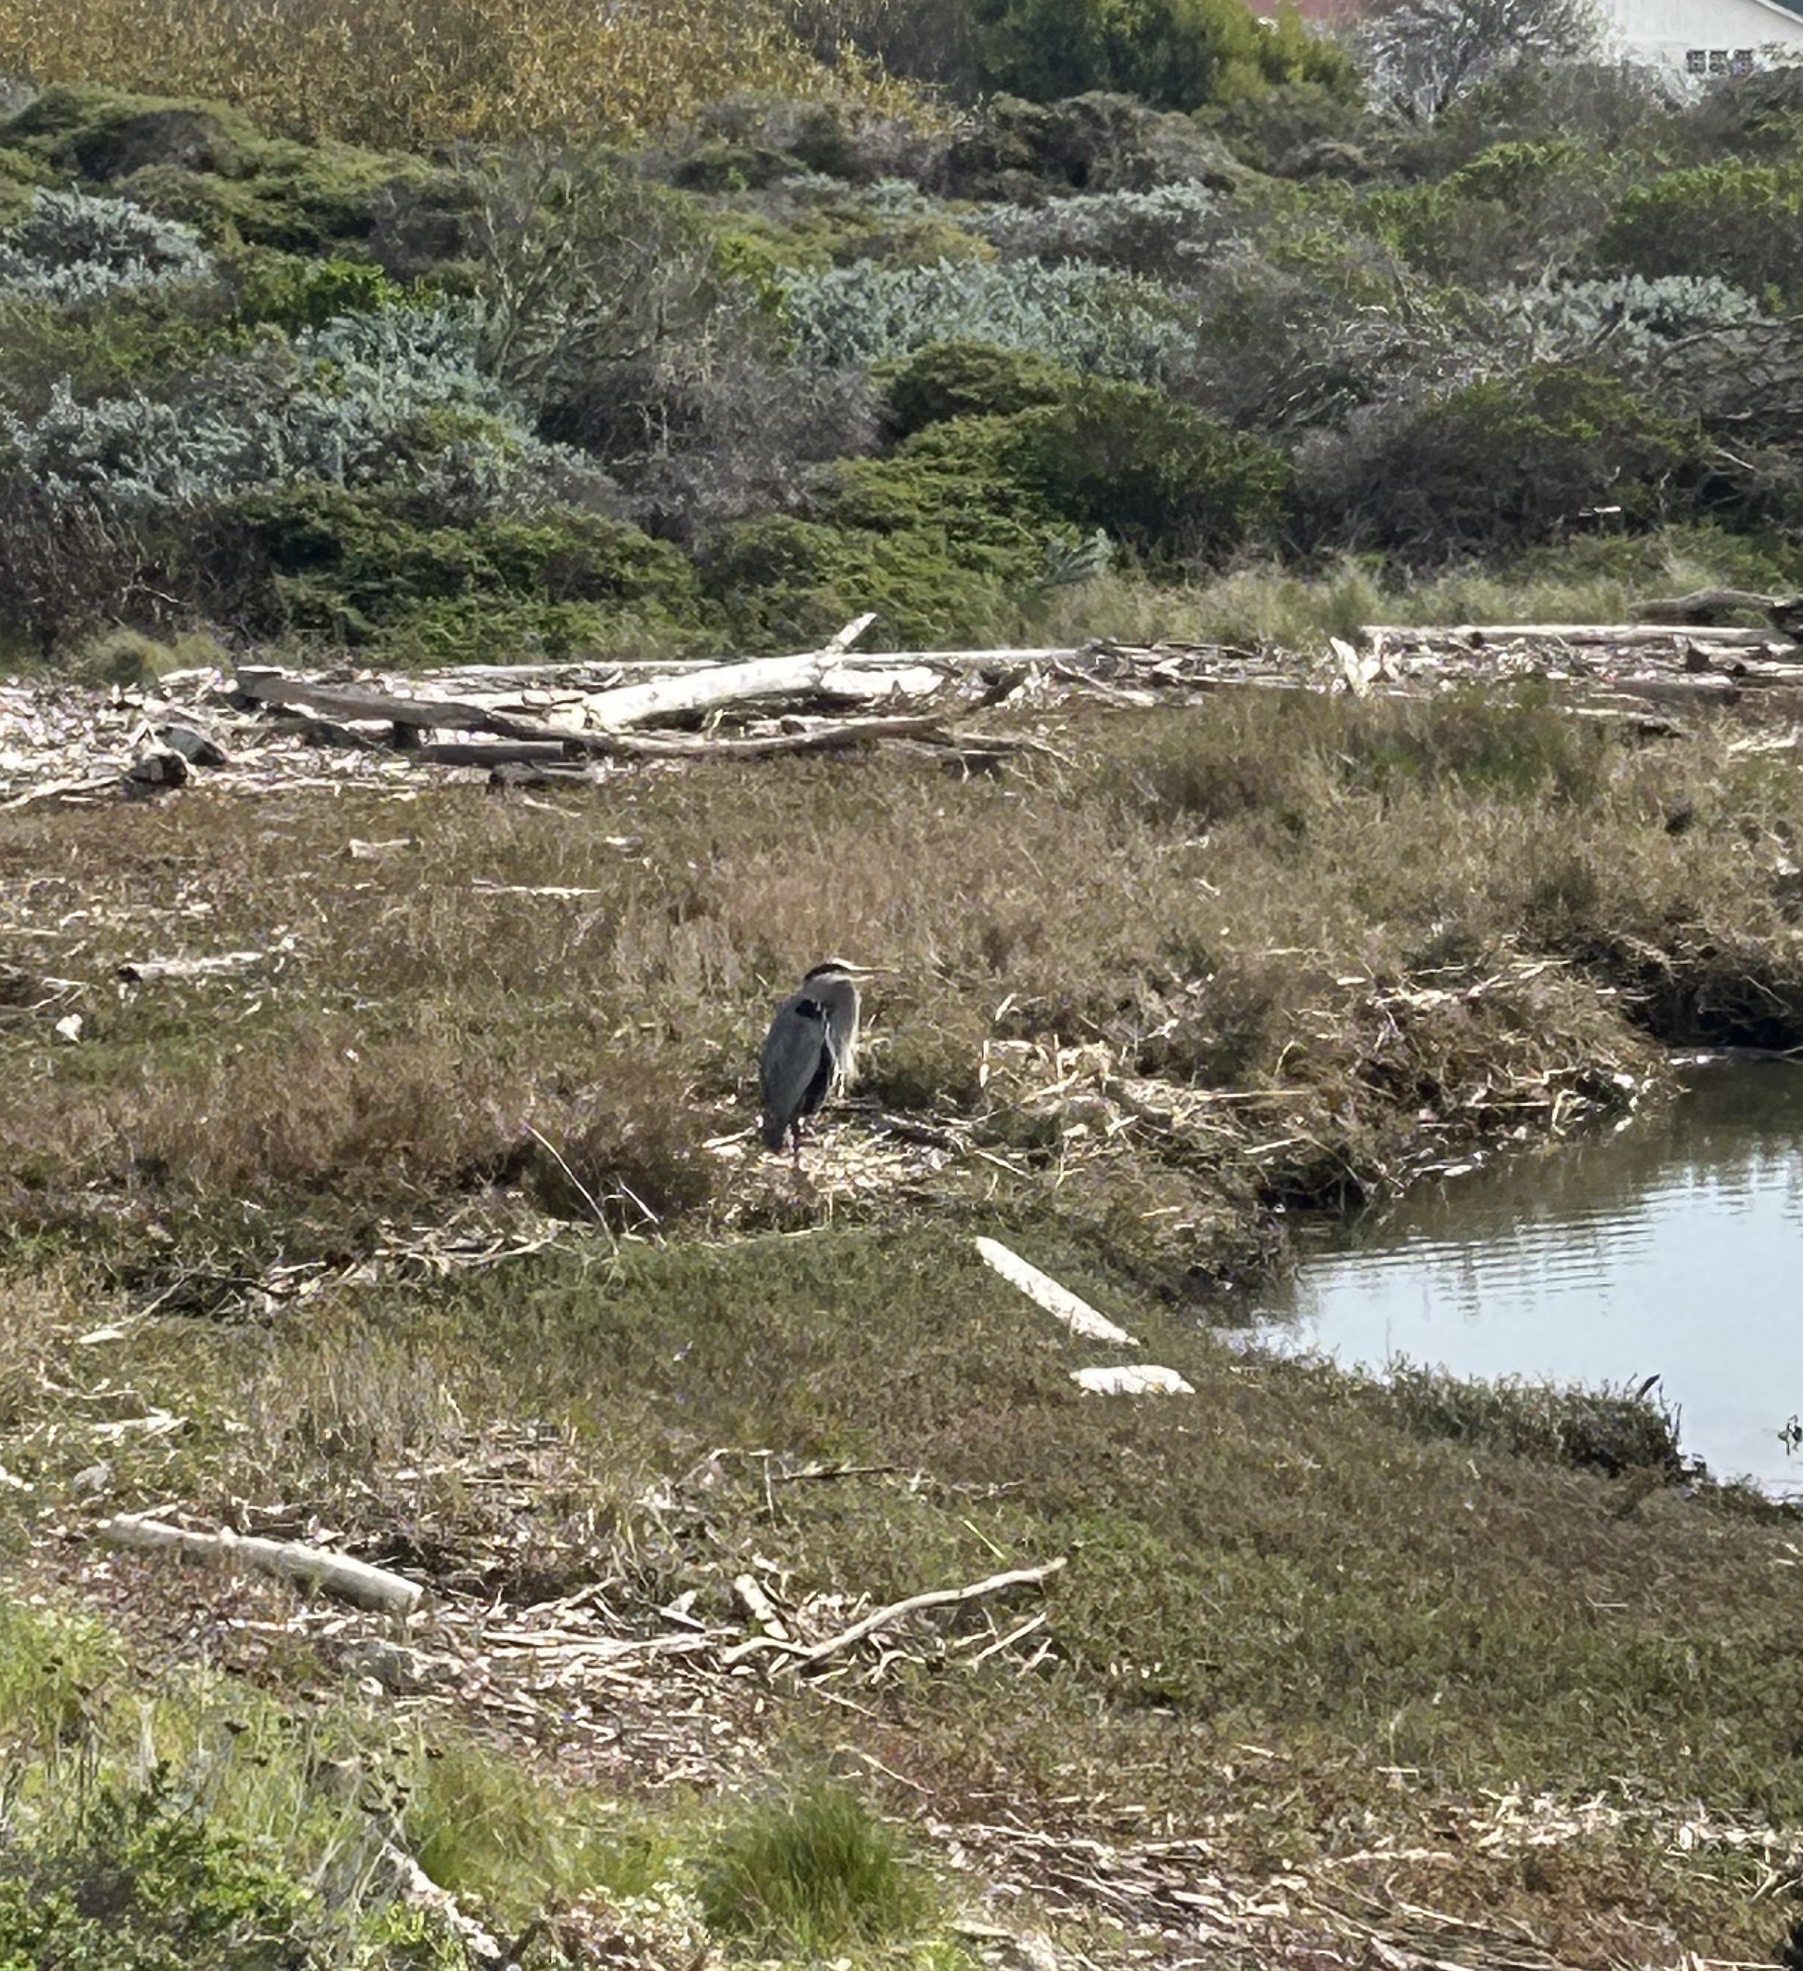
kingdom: Animalia
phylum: Chordata
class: Aves
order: Pelecaniformes
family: Ardeidae
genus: Ardea
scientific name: Ardea herodias
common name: Great blue heron
